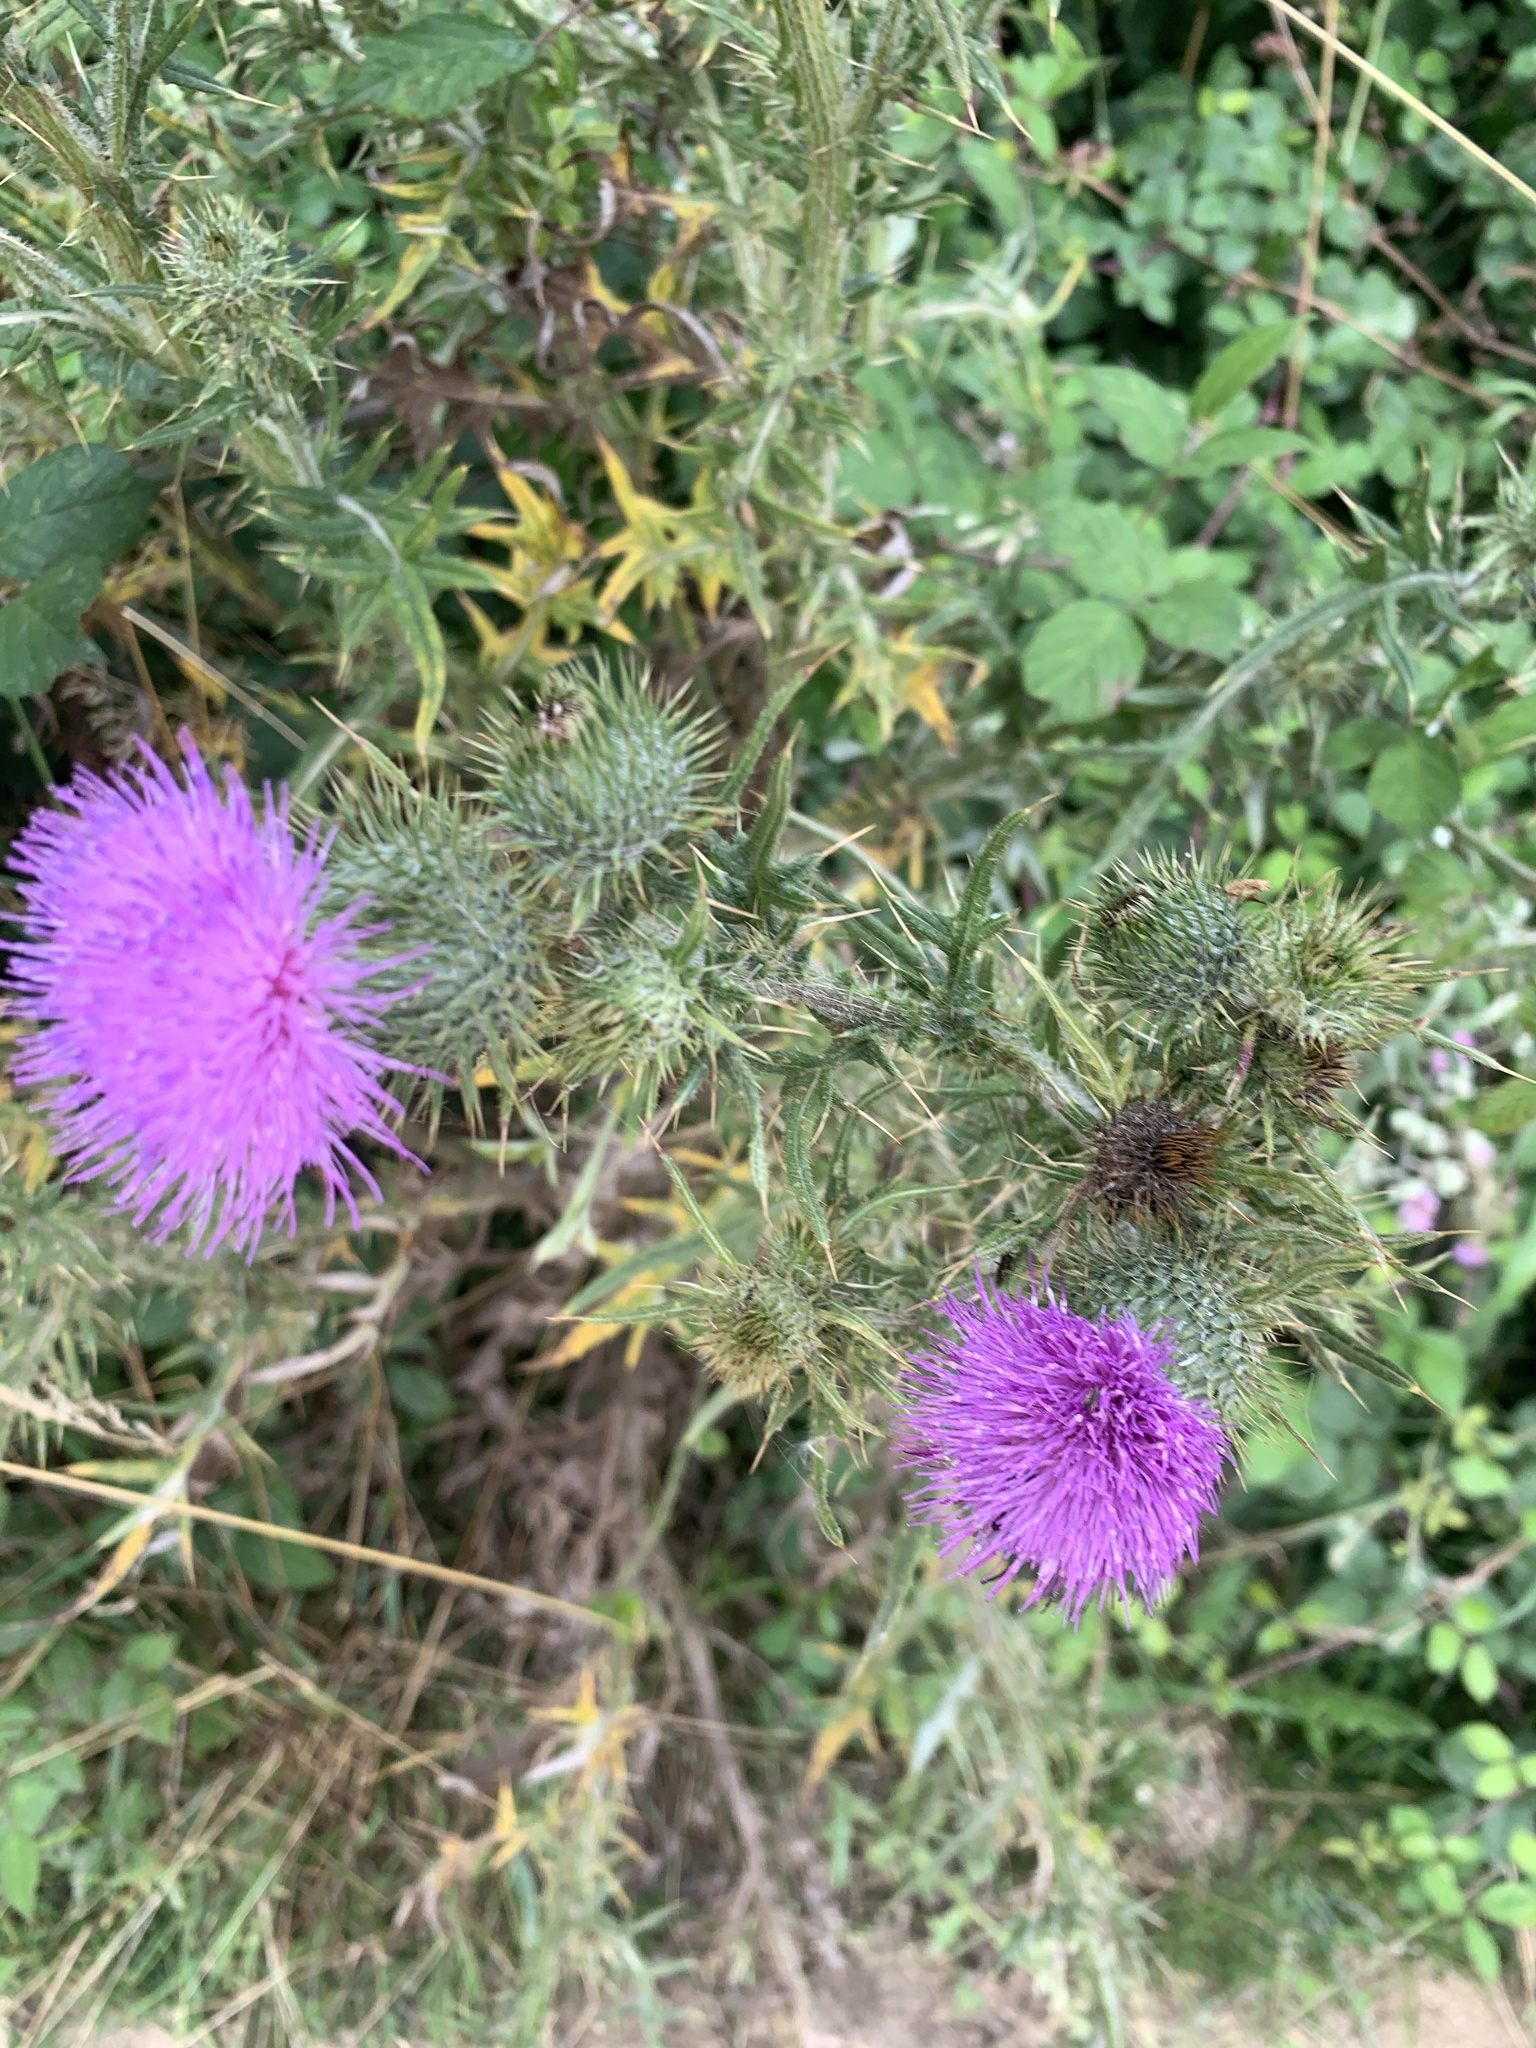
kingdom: Plantae
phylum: Tracheophyta
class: Magnoliopsida
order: Asterales
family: Asteraceae
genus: Cirsium
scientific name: Cirsium vulgare
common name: Bull thistle
